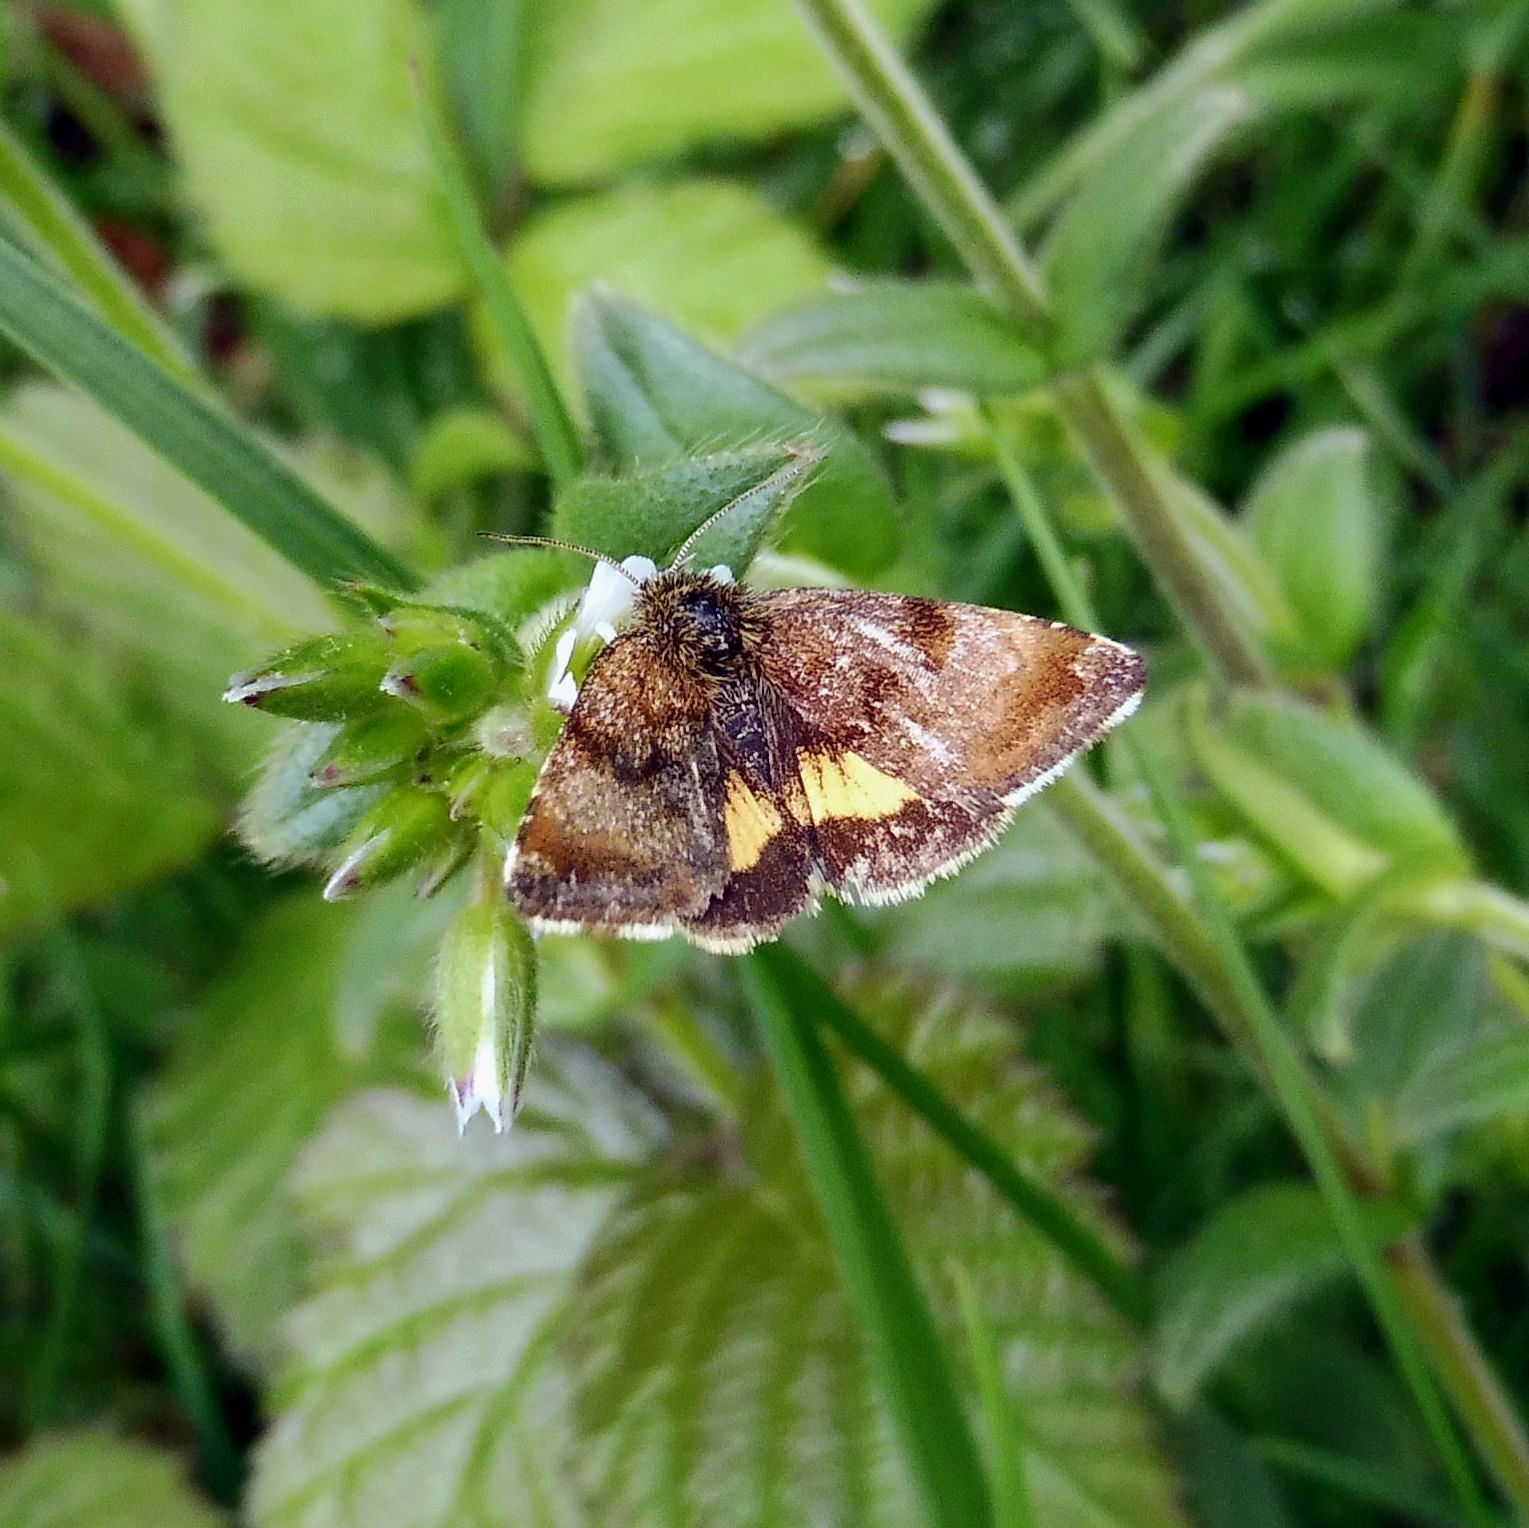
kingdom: Animalia
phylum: Arthropoda
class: Insecta
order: Lepidoptera
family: Noctuidae
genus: Panemeria
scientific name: Panemeria tenebrata
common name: Small yellow underwing
